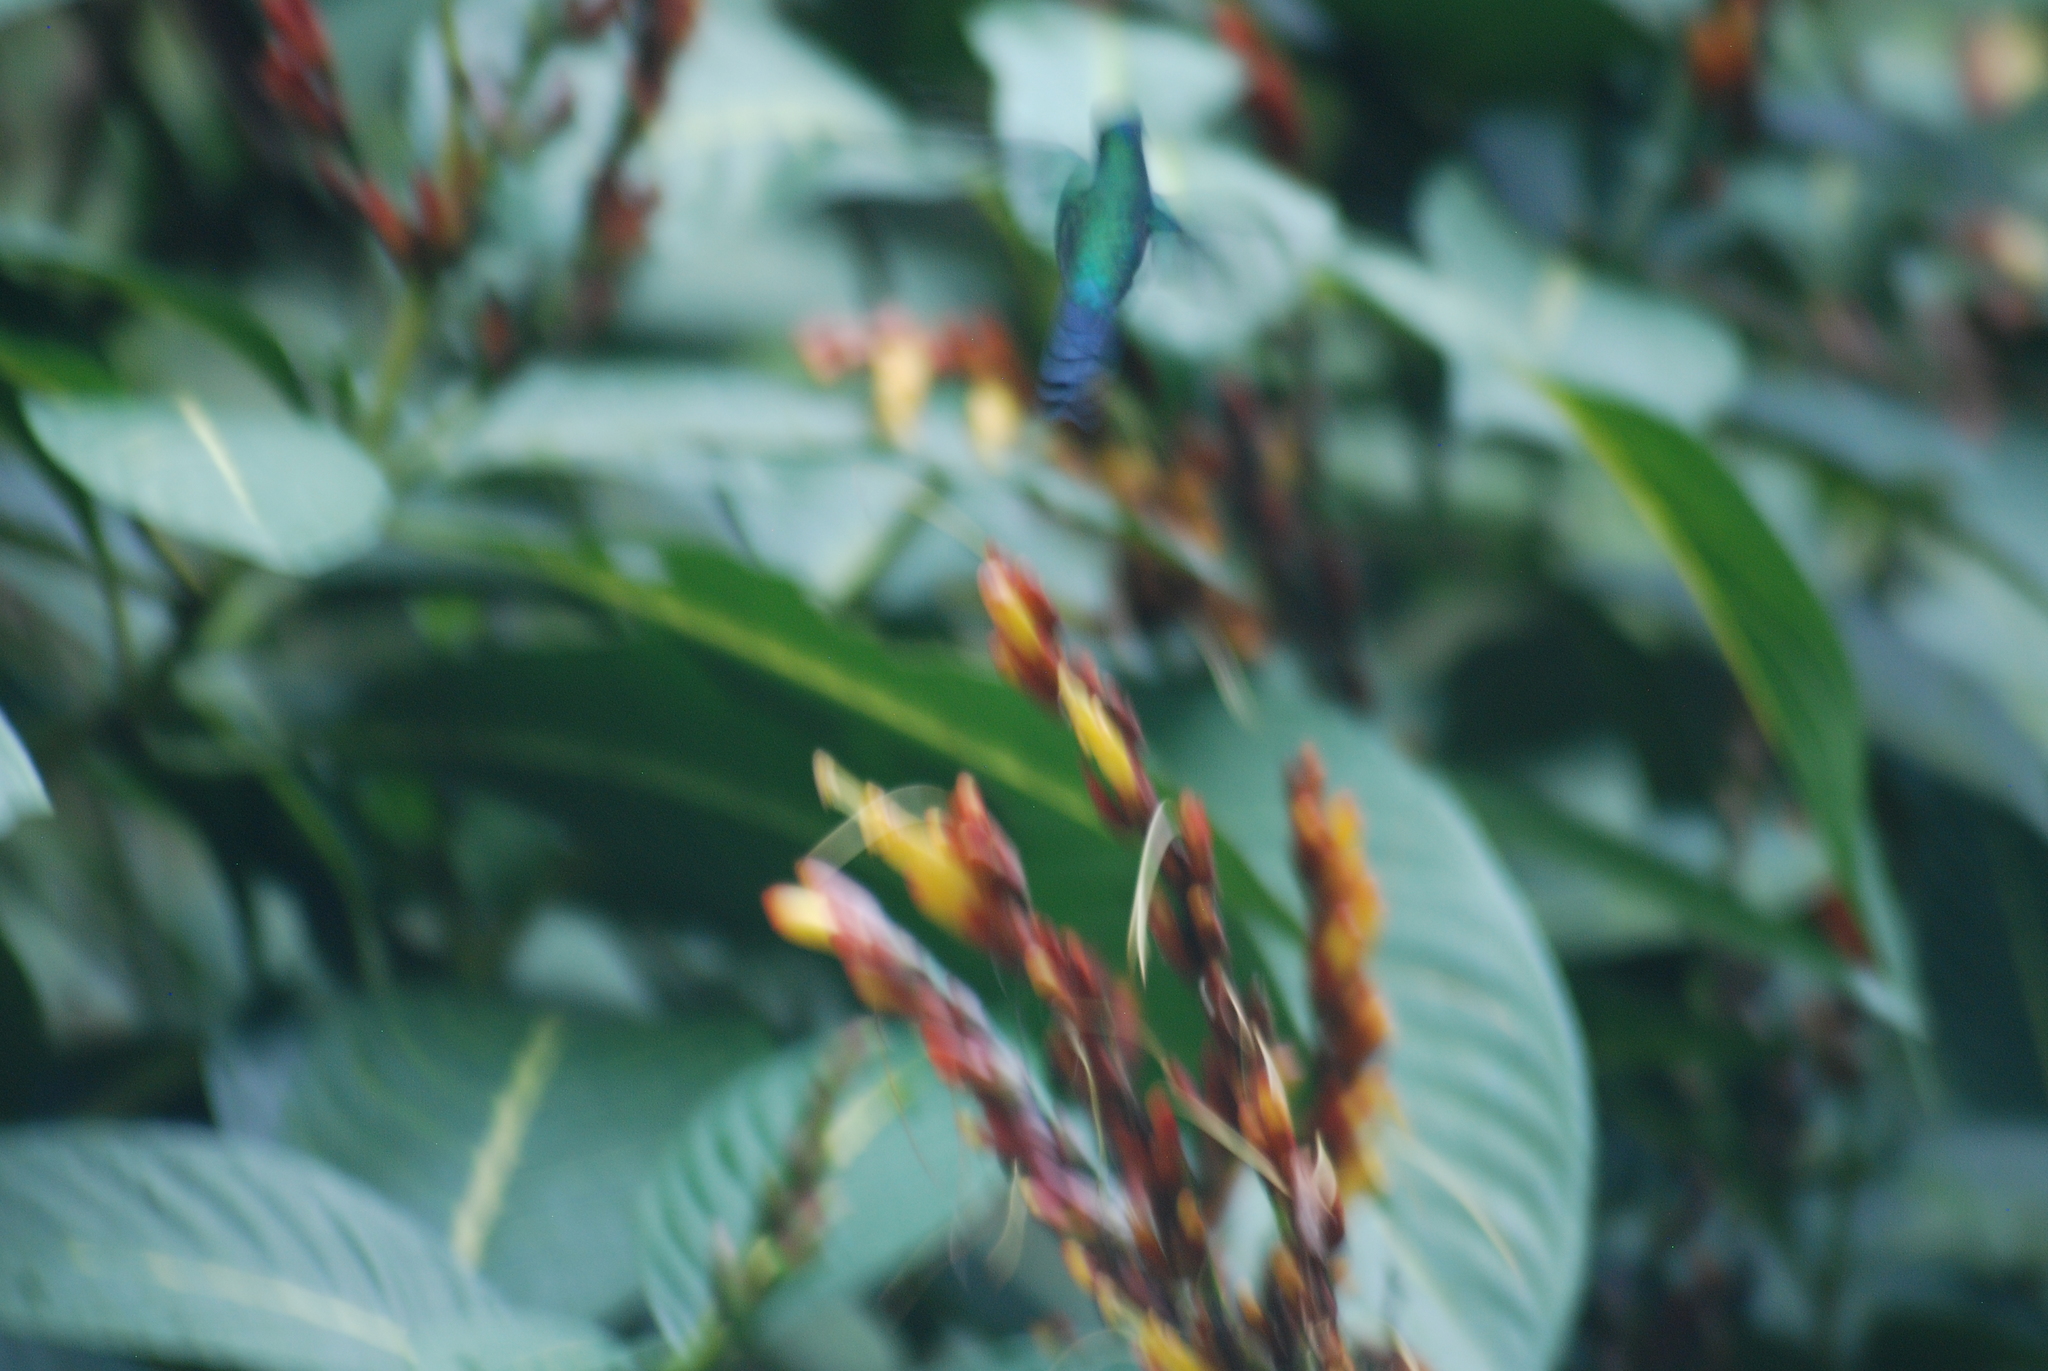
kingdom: Animalia
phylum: Chordata
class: Aves
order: Apodiformes
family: Trochilidae
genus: Thalurania
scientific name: Thalurania glaucopis
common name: Violet-capped woodnymph
